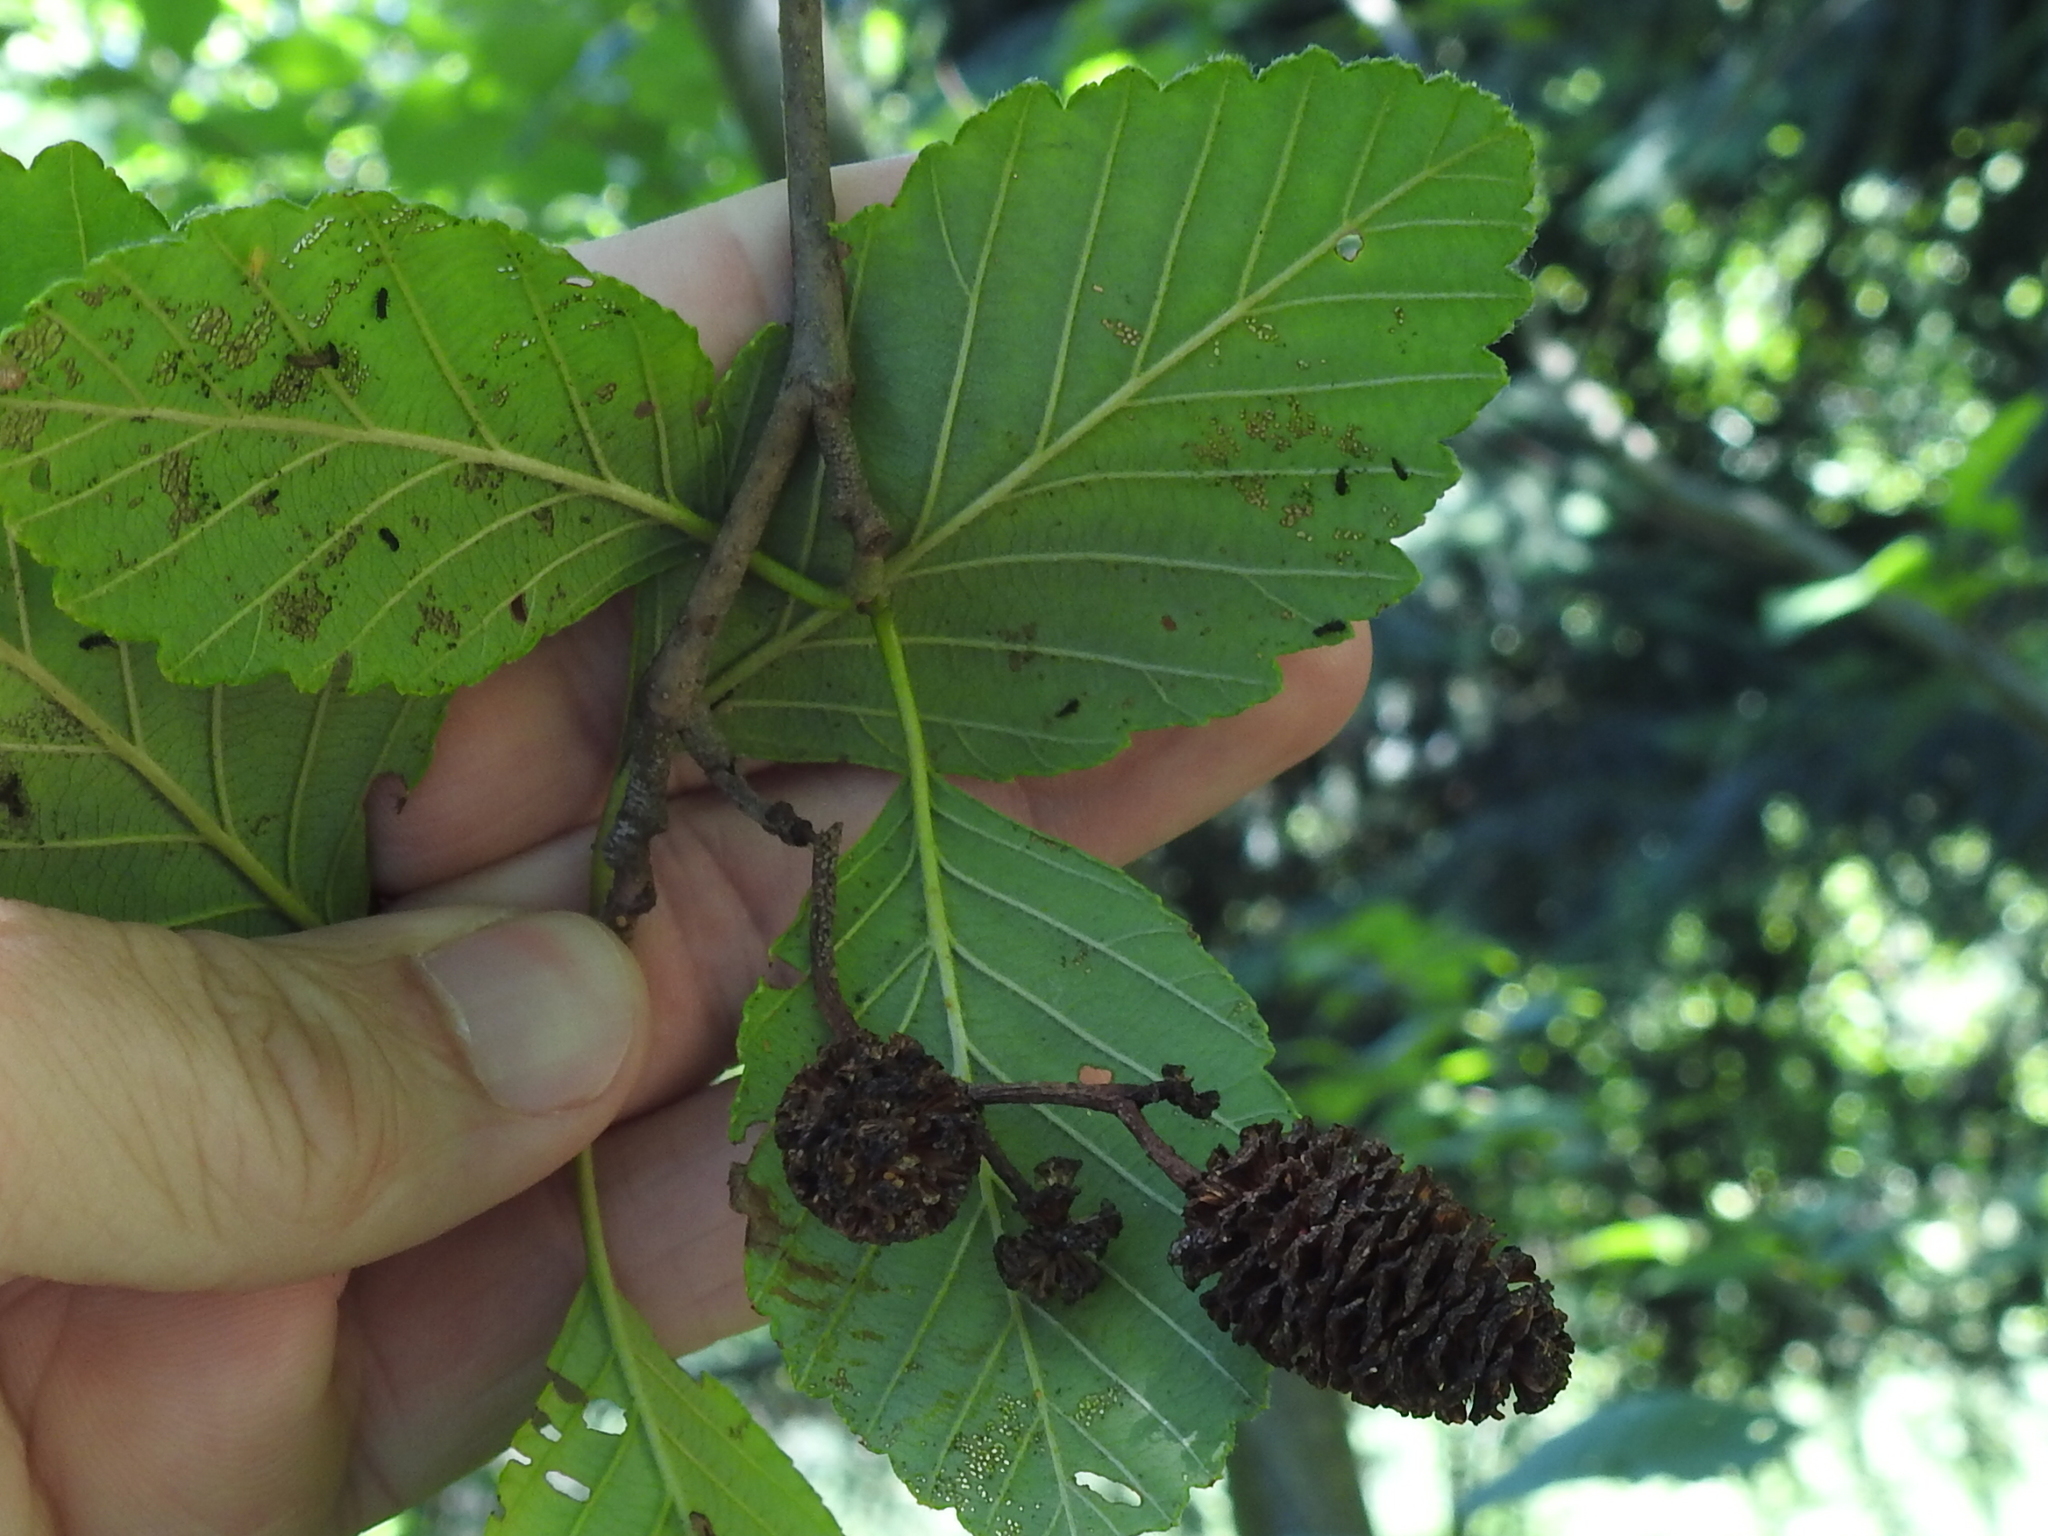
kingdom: Plantae
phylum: Tracheophyta
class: Magnoliopsida
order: Fagales
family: Betulaceae
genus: Alnus
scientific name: Alnus rubra
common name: Red alder
